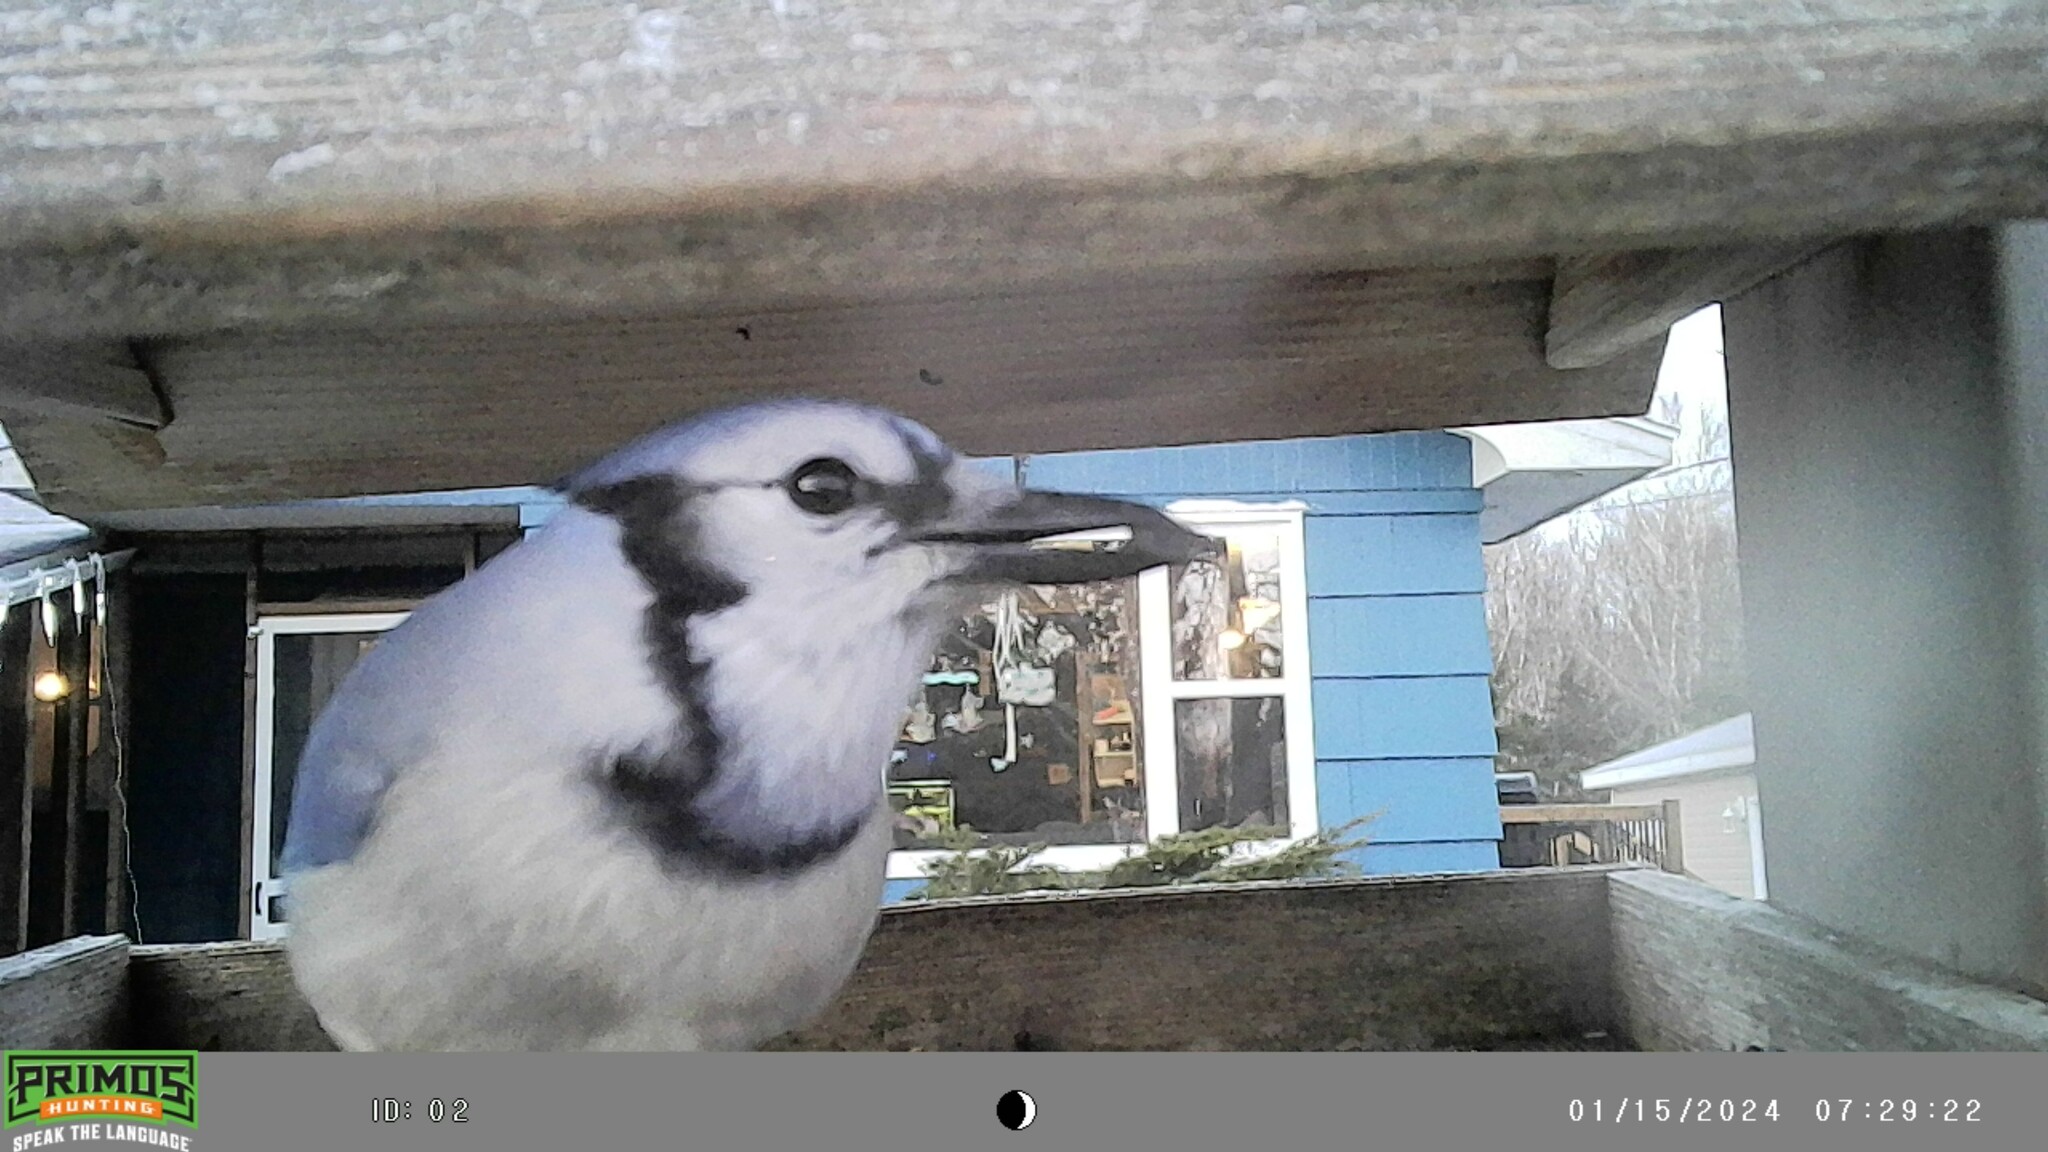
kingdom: Animalia
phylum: Chordata
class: Aves
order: Passeriformes
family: Corvidae
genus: Cyanocitta
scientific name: Cyanocitta cristata
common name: Blue jay
